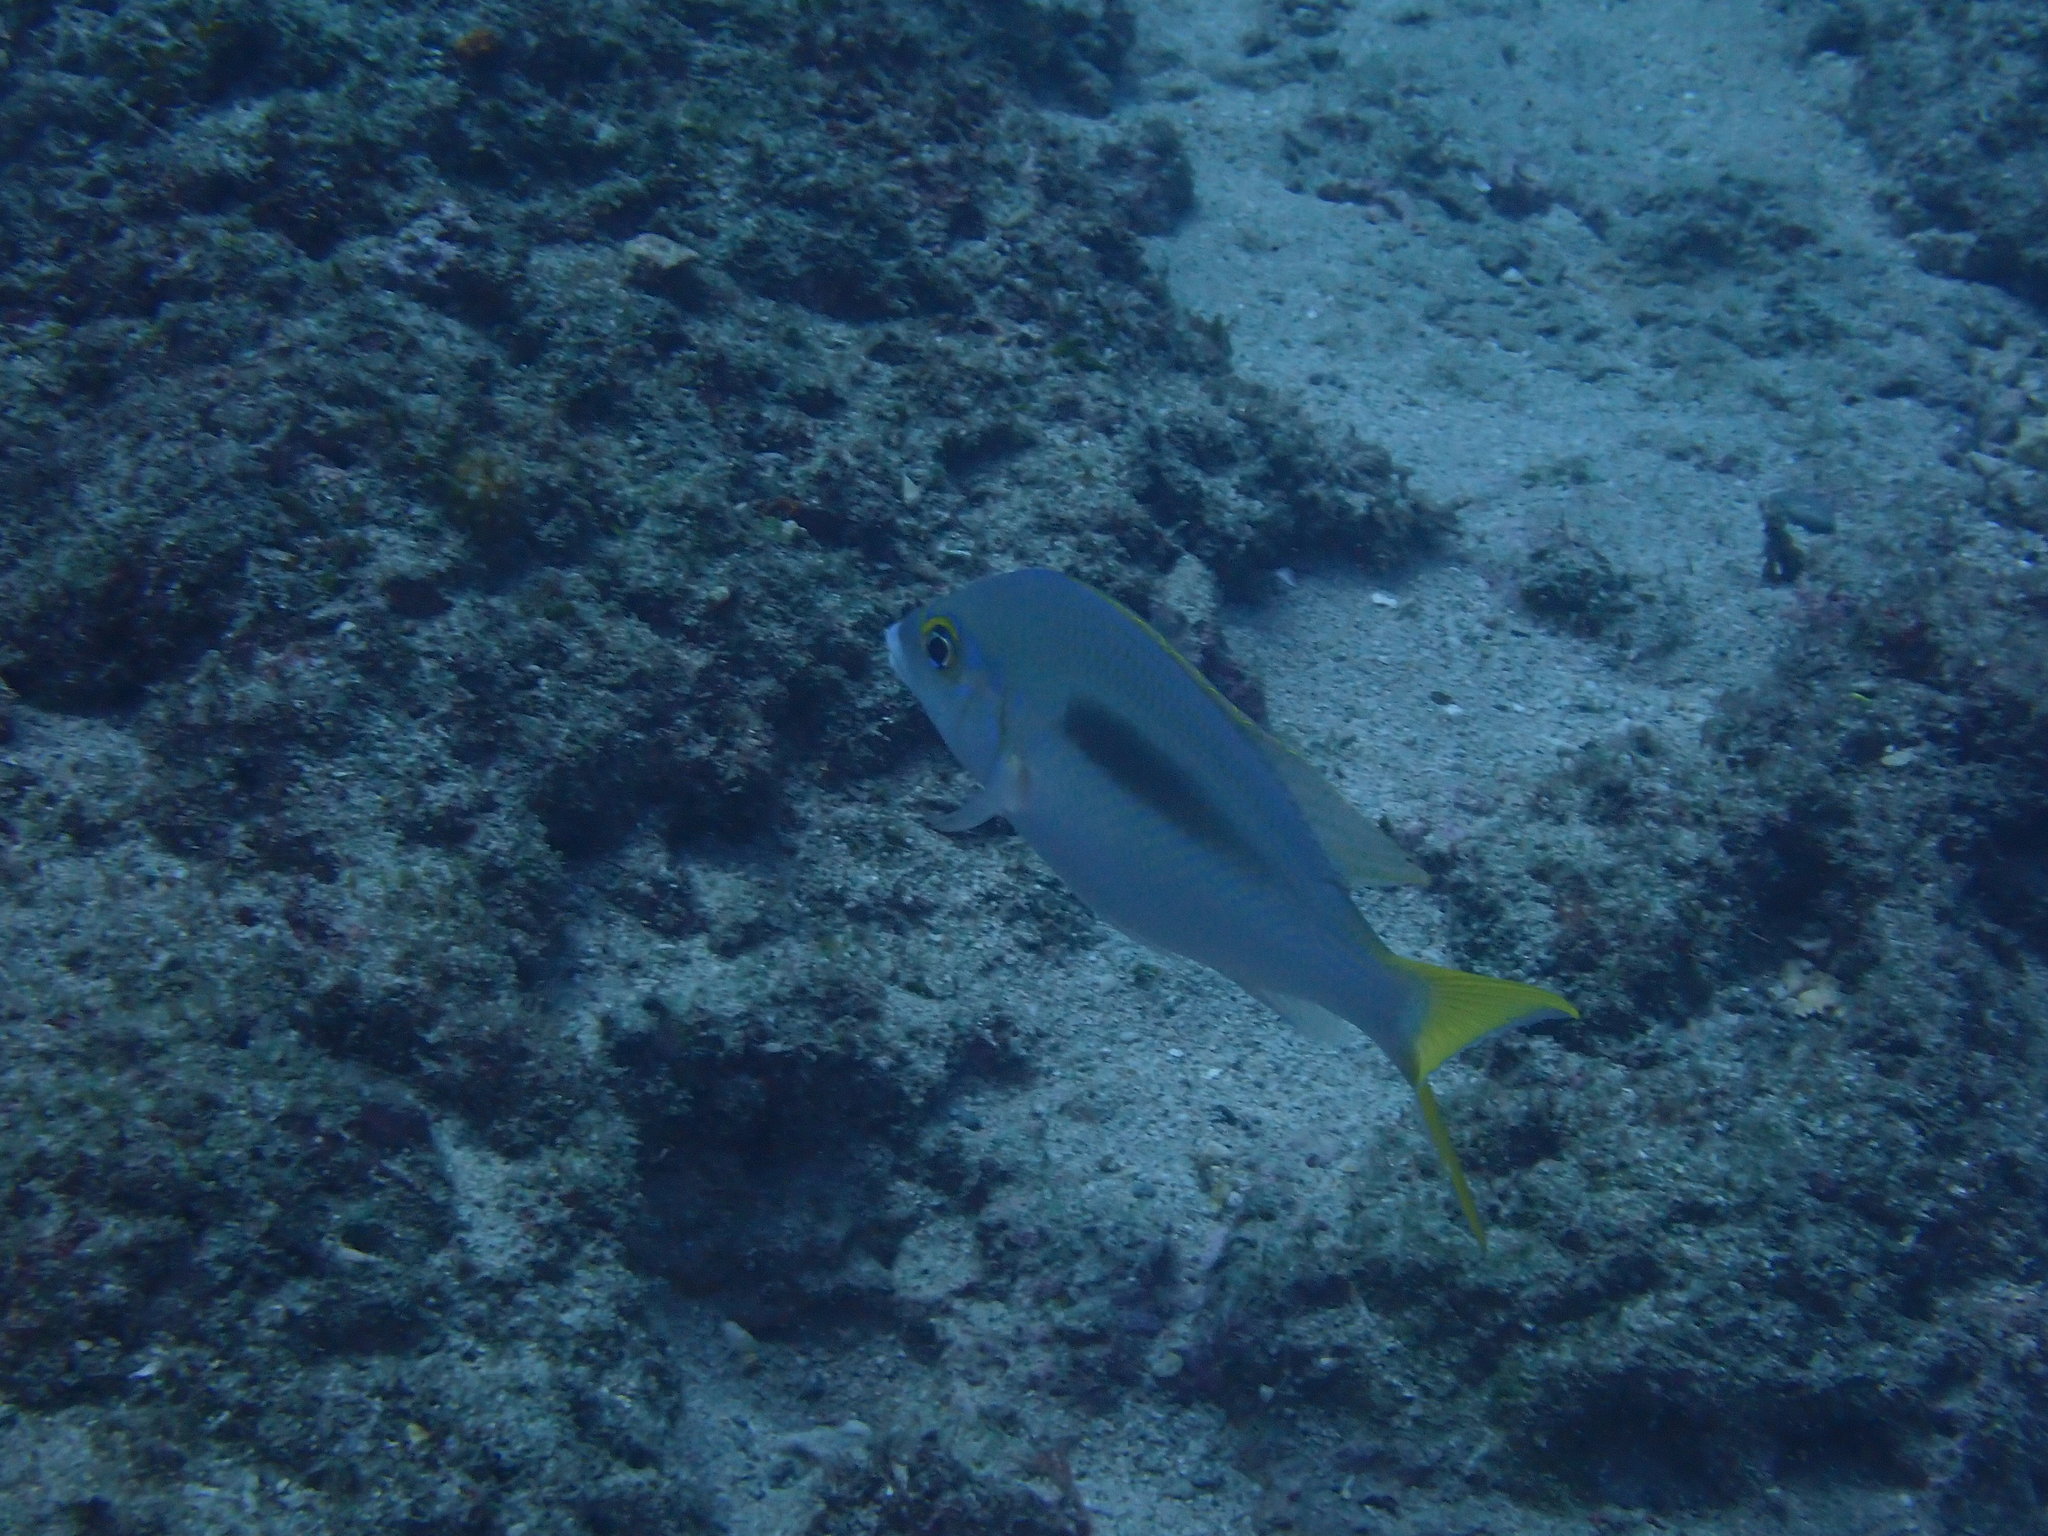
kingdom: Animalia
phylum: Chordata
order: Perciformes
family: Nemipteridae
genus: Scolopsis
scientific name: Scolopsis monogramma
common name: Monogrammed monocle bream
